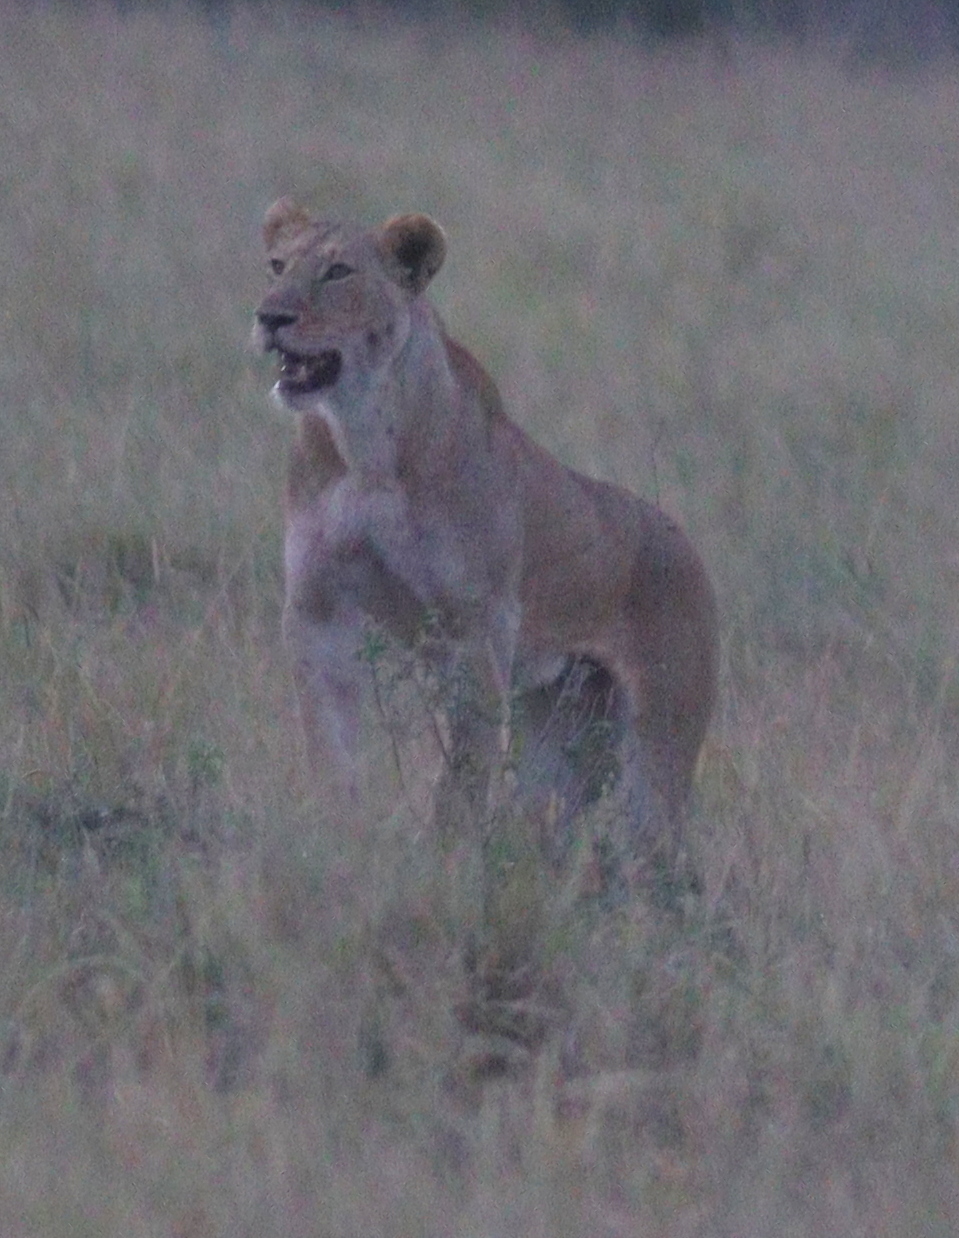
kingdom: Animalia
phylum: Chordata
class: Mammalia
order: Carnivora
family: Felidae
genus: Panthera
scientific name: Panthera leo
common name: Lion
